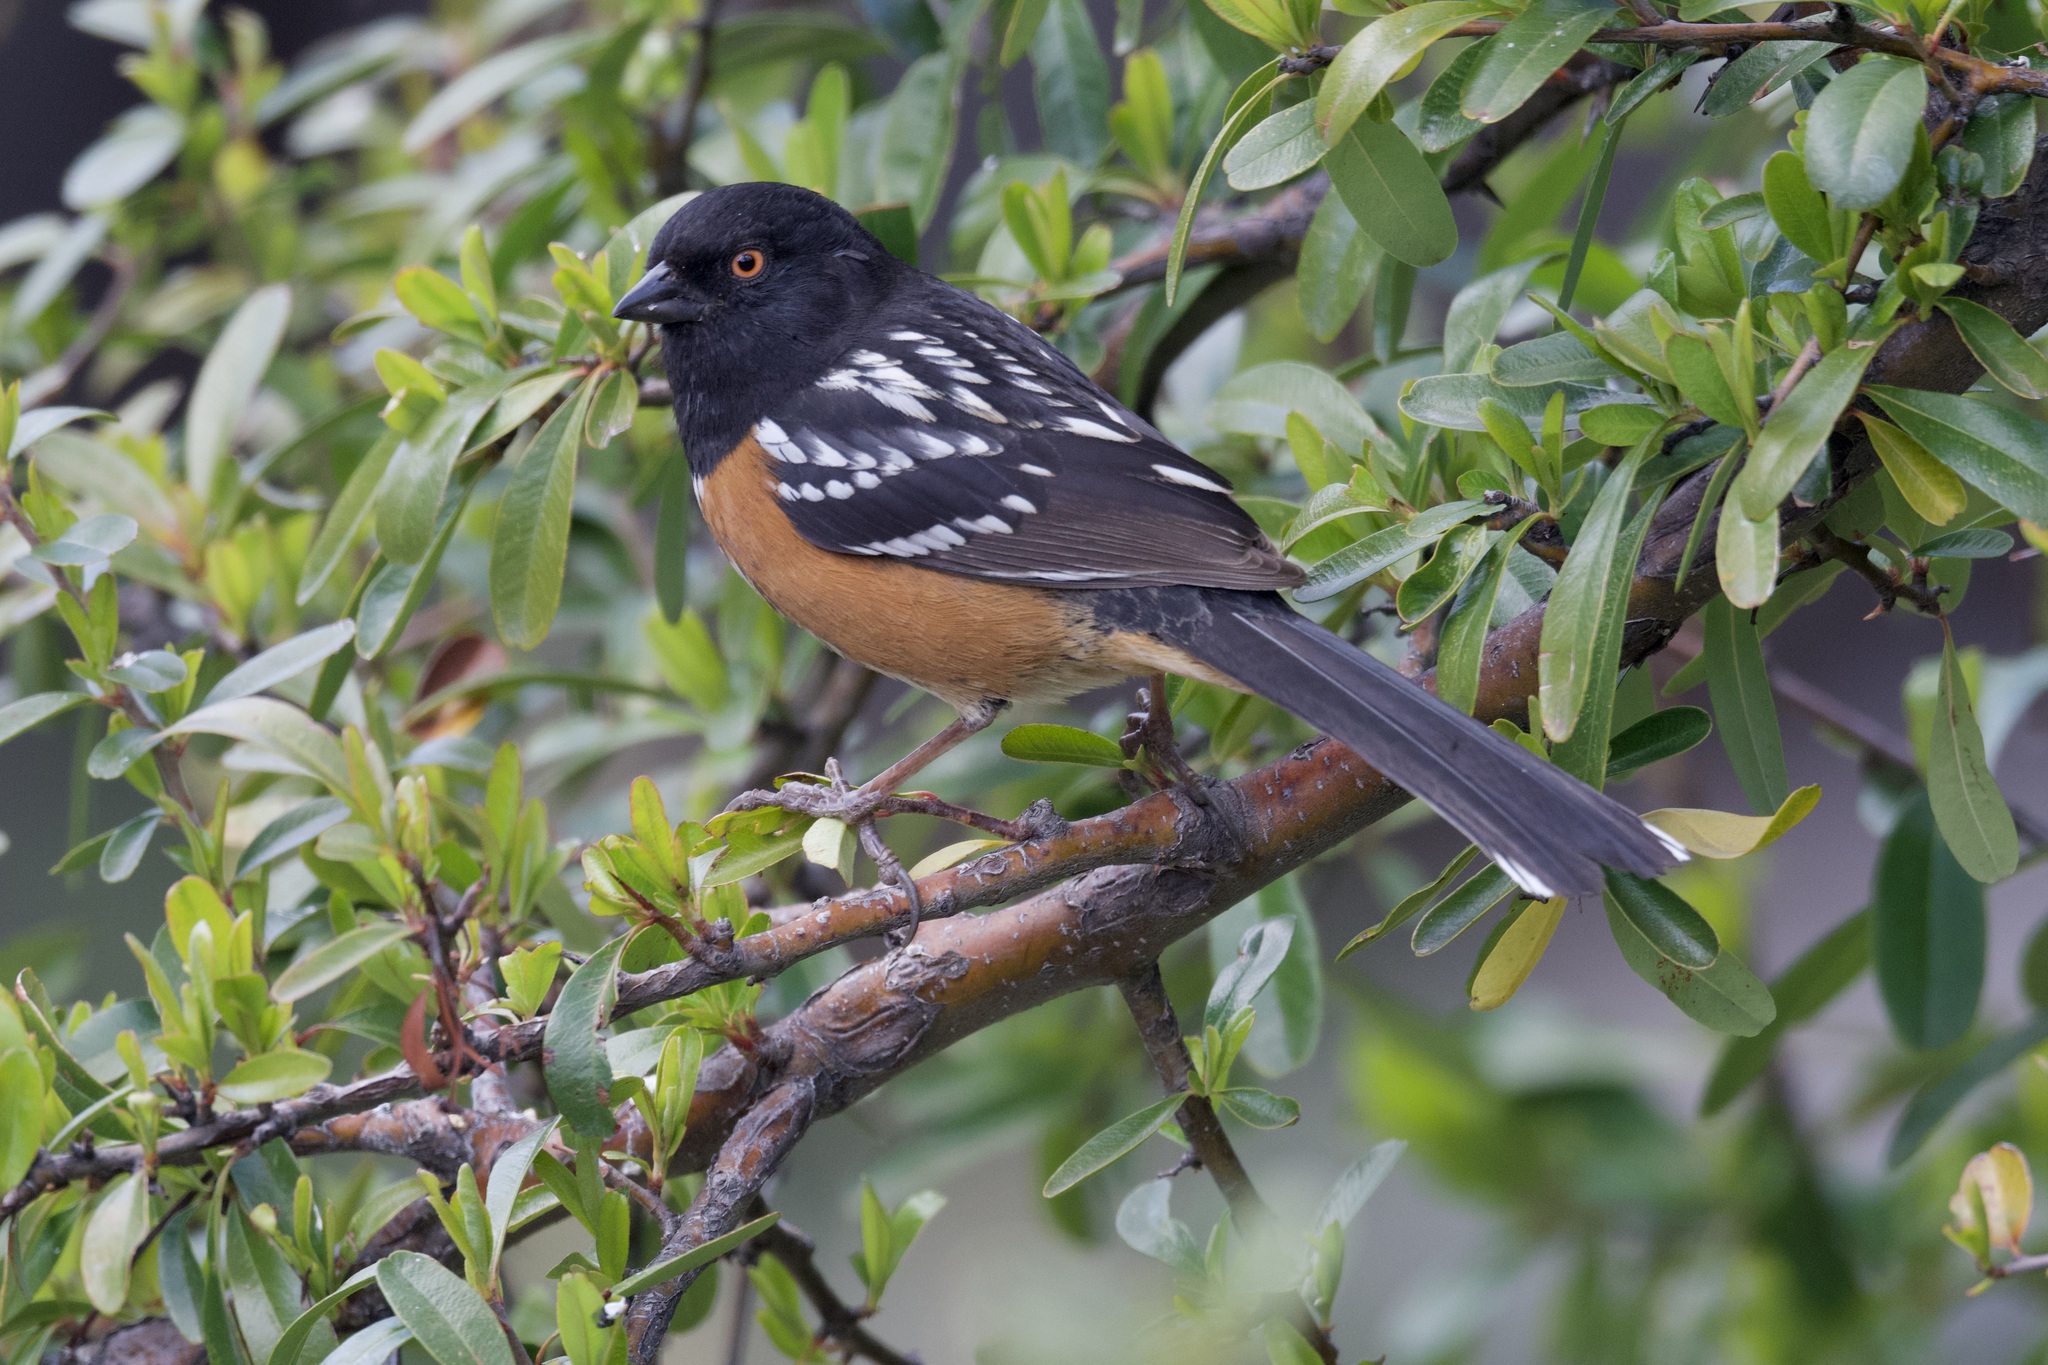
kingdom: Animalia
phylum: Chordata
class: Aves
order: Passeriformes
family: Passerellidae
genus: Pipilo
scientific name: Pipilo maculatus
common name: Spotted towhee
